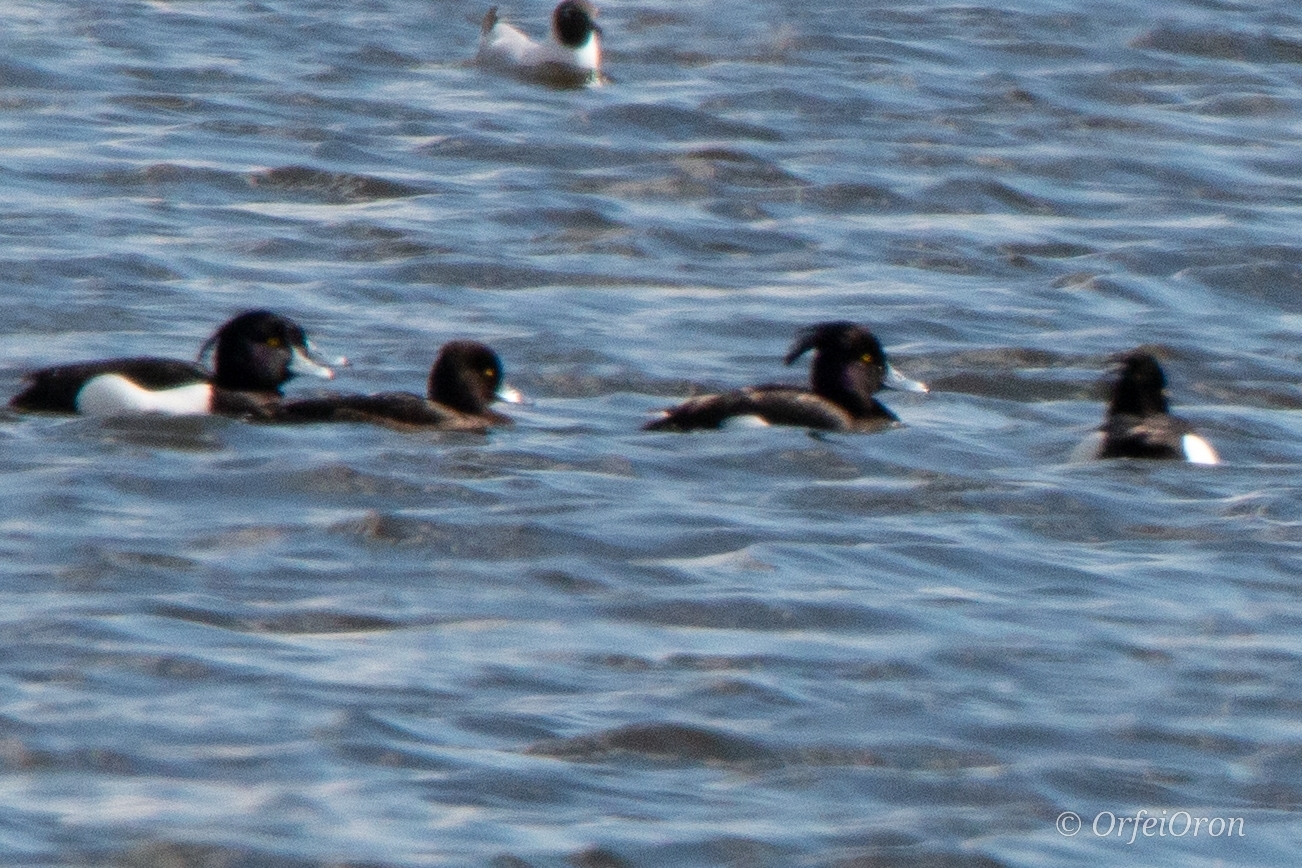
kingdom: Animalia
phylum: Chordata
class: Aves
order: Anseriformes
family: Anatidae
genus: Aythya
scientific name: Aythya fuligula
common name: Tufted duck
